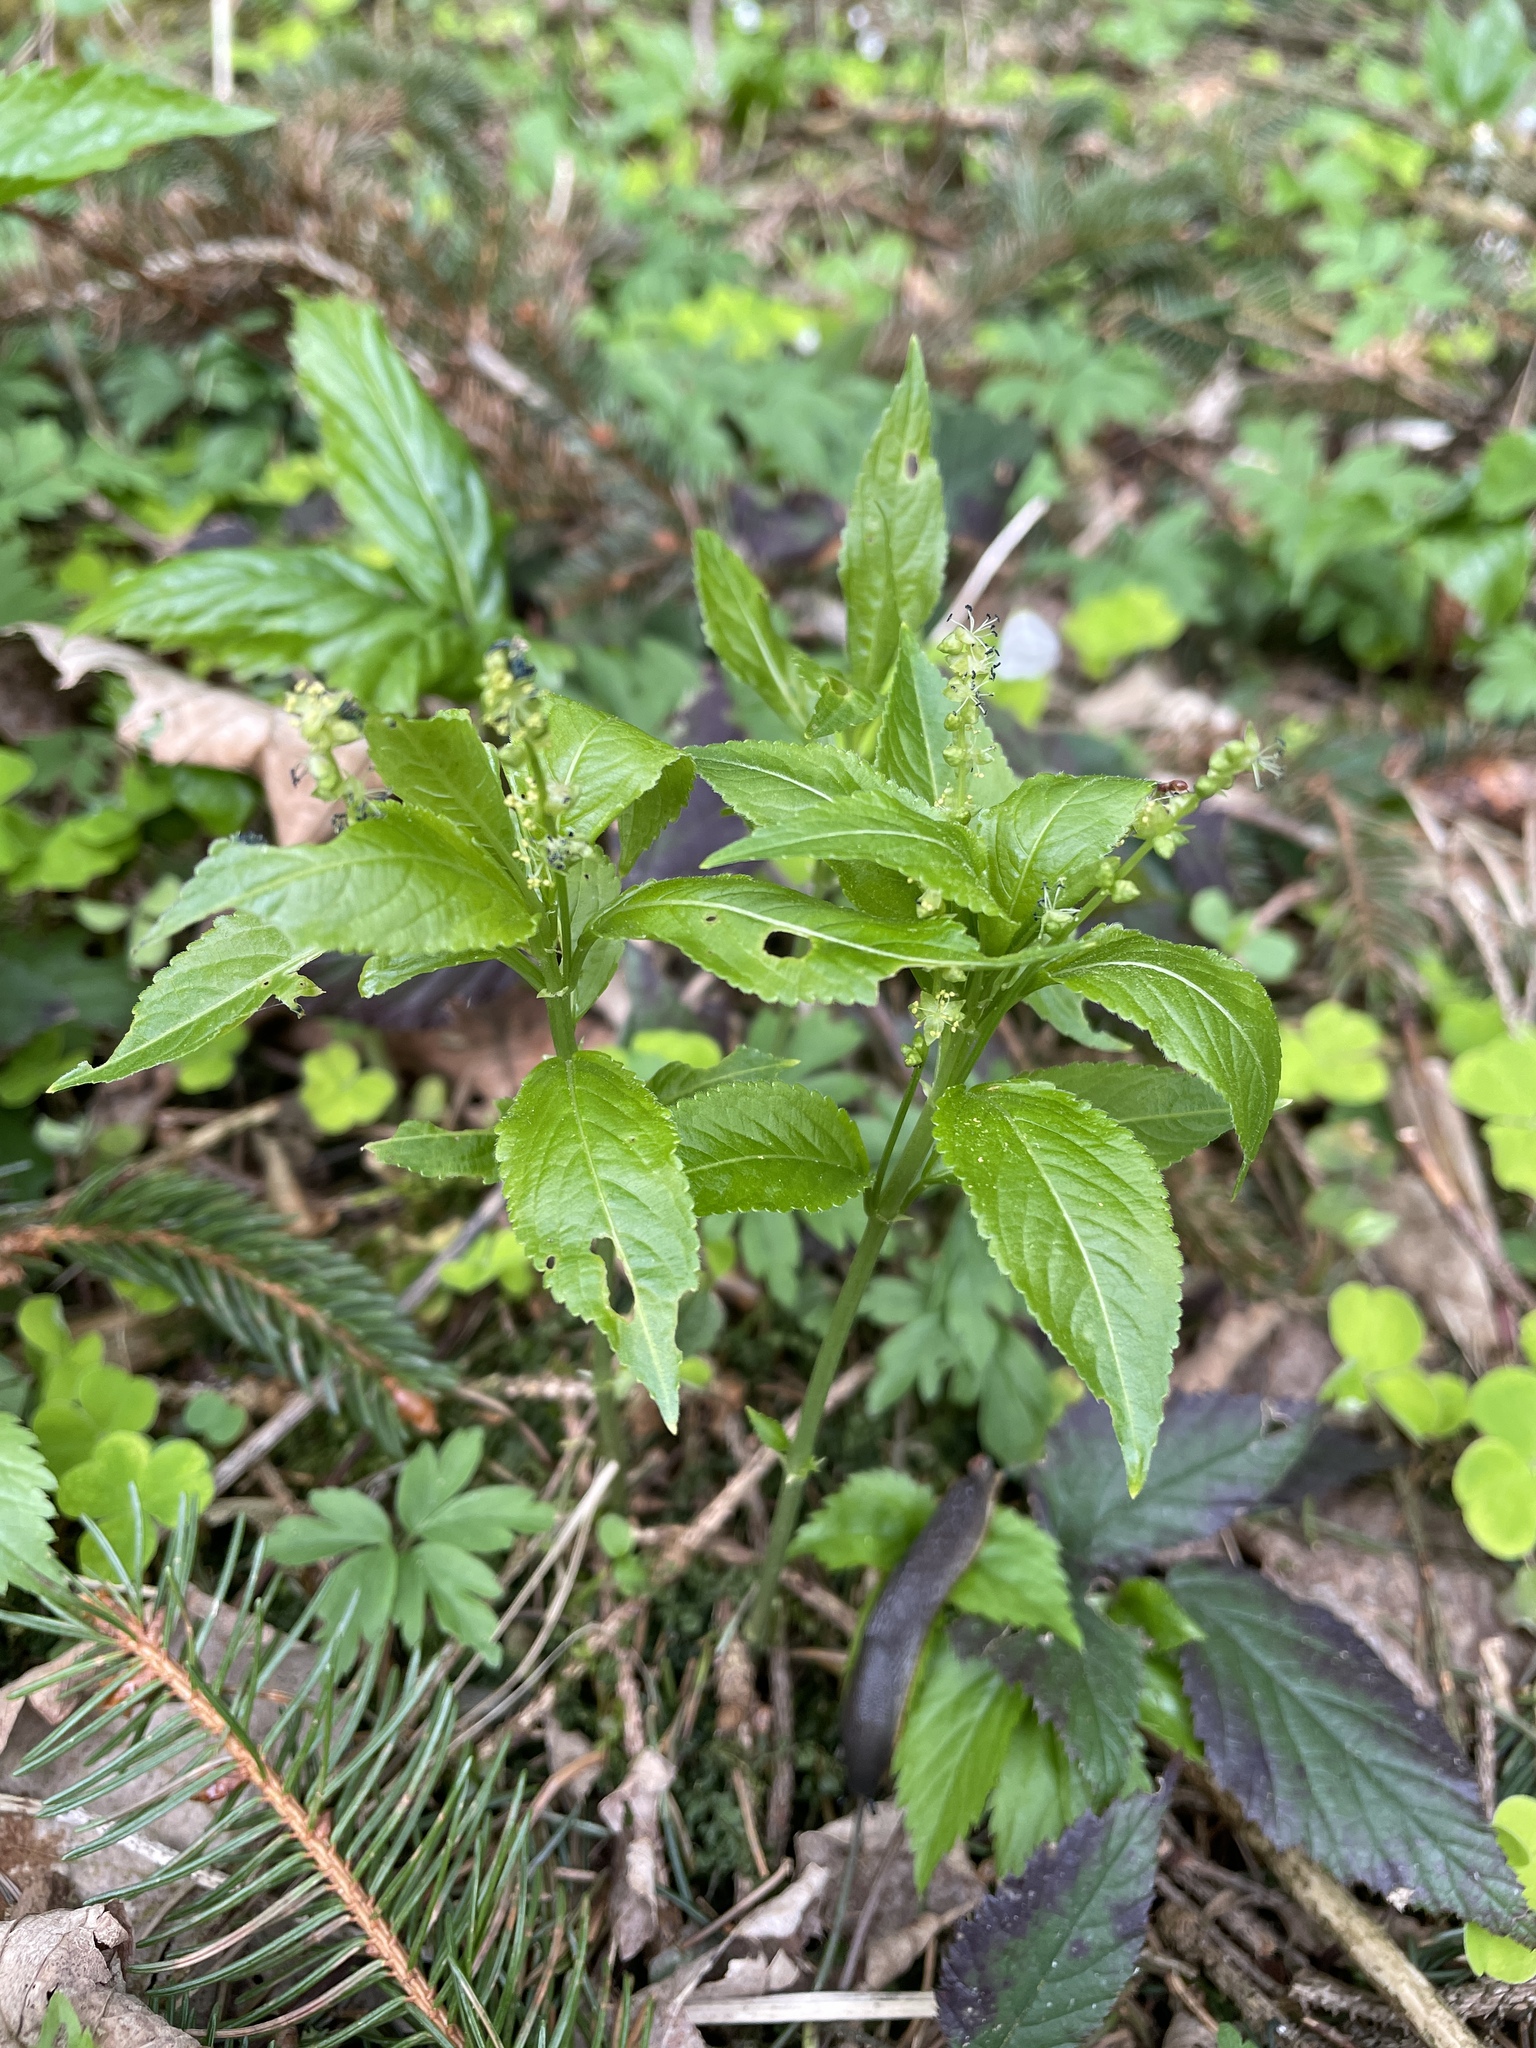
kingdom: Plantae
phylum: Tracheophyta
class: Magnoliopsida
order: Malpighiales
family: Euphorbiaceae
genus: Mercurialis
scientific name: Mercurialis perennis
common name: Dog mercury
